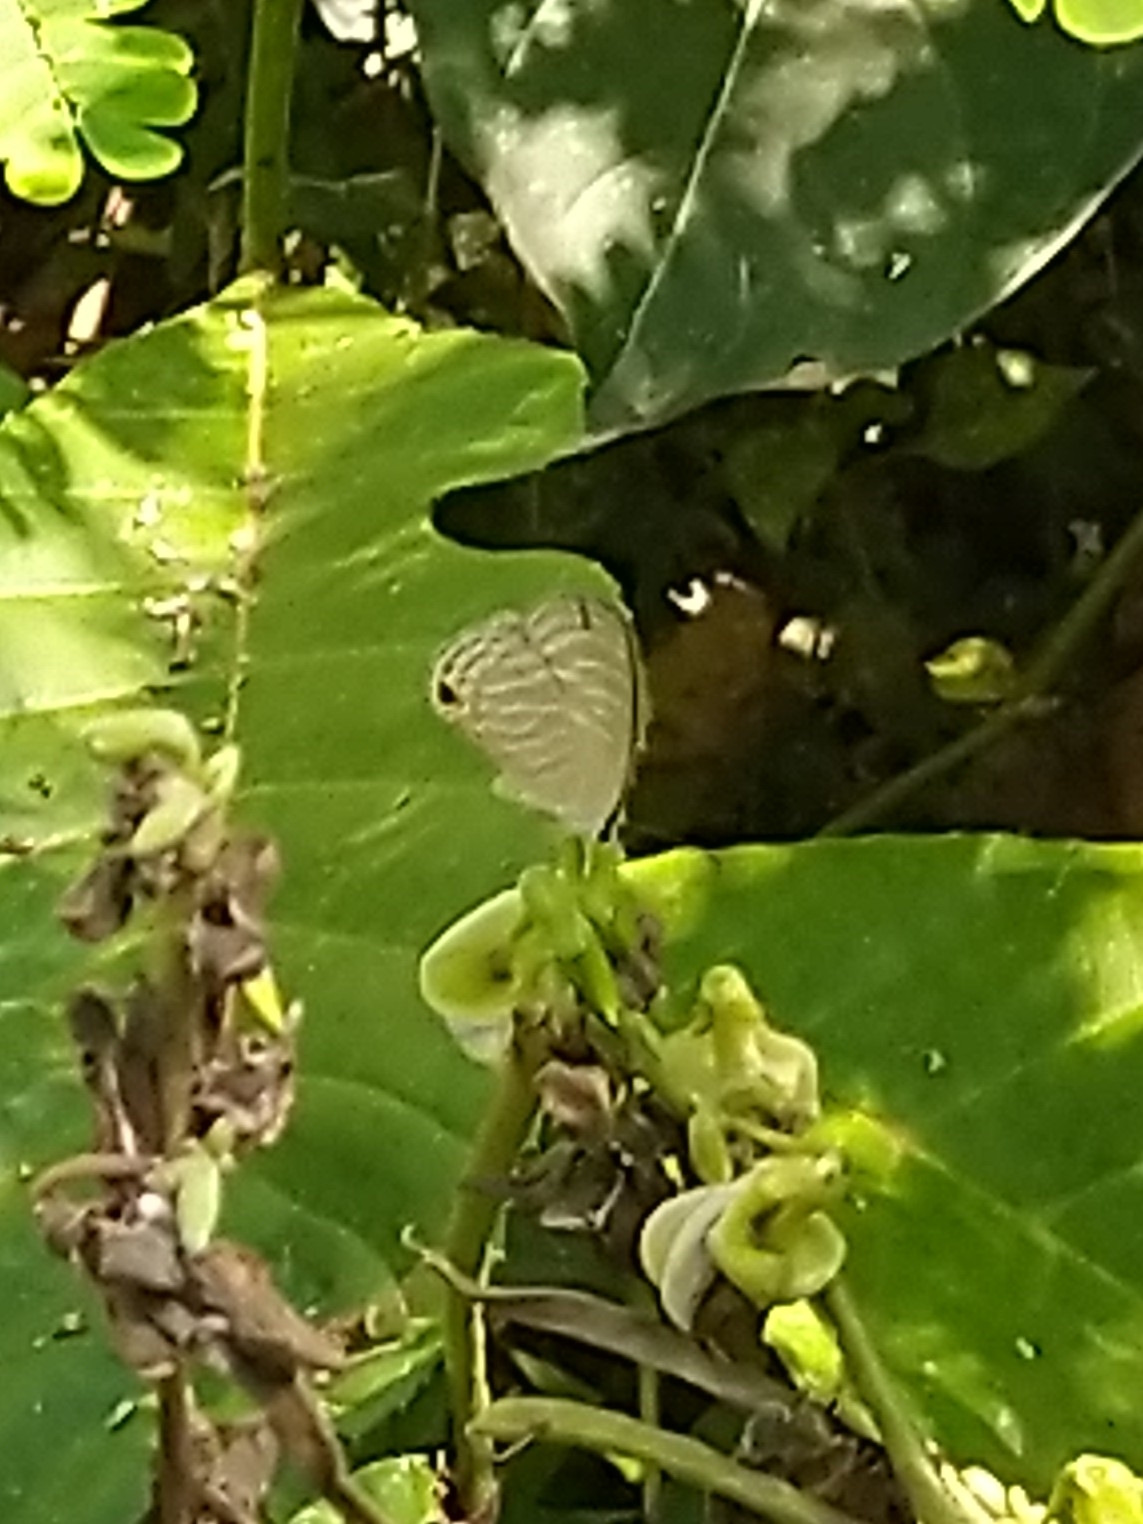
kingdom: Animalia
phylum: Arthropoda
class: Insecta
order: Lepidoptera
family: Lycaenidae
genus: Jamides
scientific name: Jamides celeno
